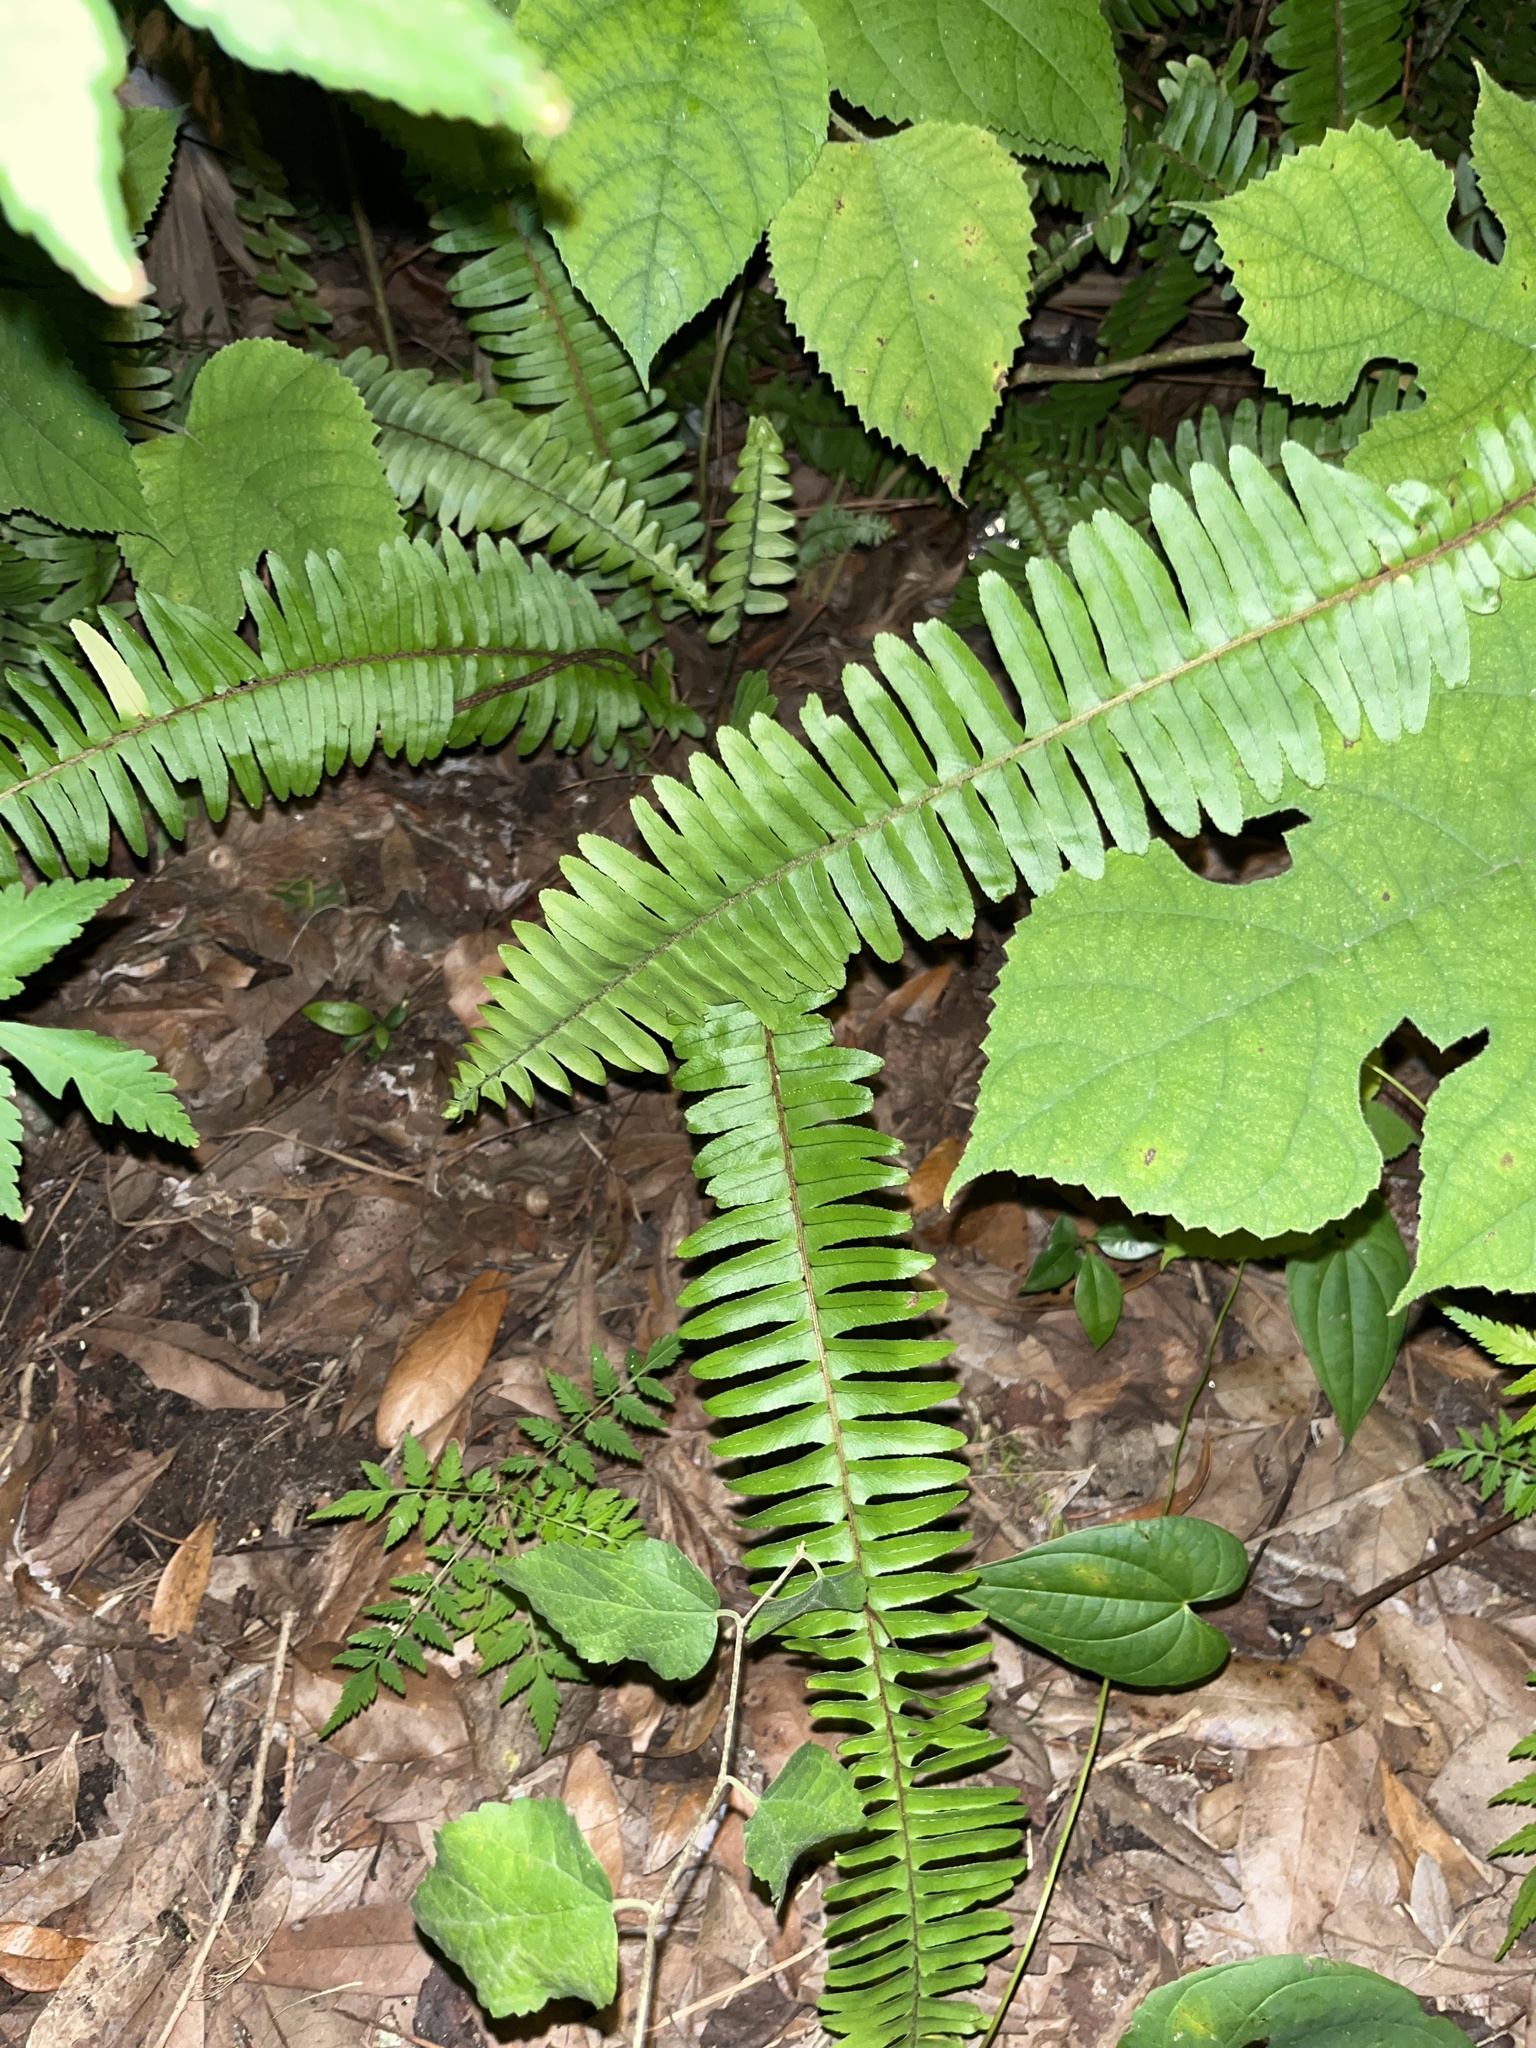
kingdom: Plantae
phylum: Tracheophyta
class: Polypodiopsida
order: Polypodiales
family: Nephrolepidaceae
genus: Nephrolepis
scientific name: Nephrolepis cordifolia
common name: Narrow swordfern
